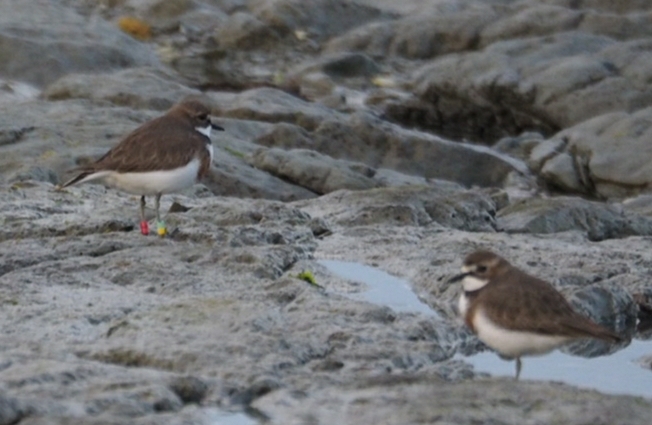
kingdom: Animalia
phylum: Chordata
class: Aves
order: Charadriiformes
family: Charadriidae
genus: Anarhynchus
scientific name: Anarhynchus
